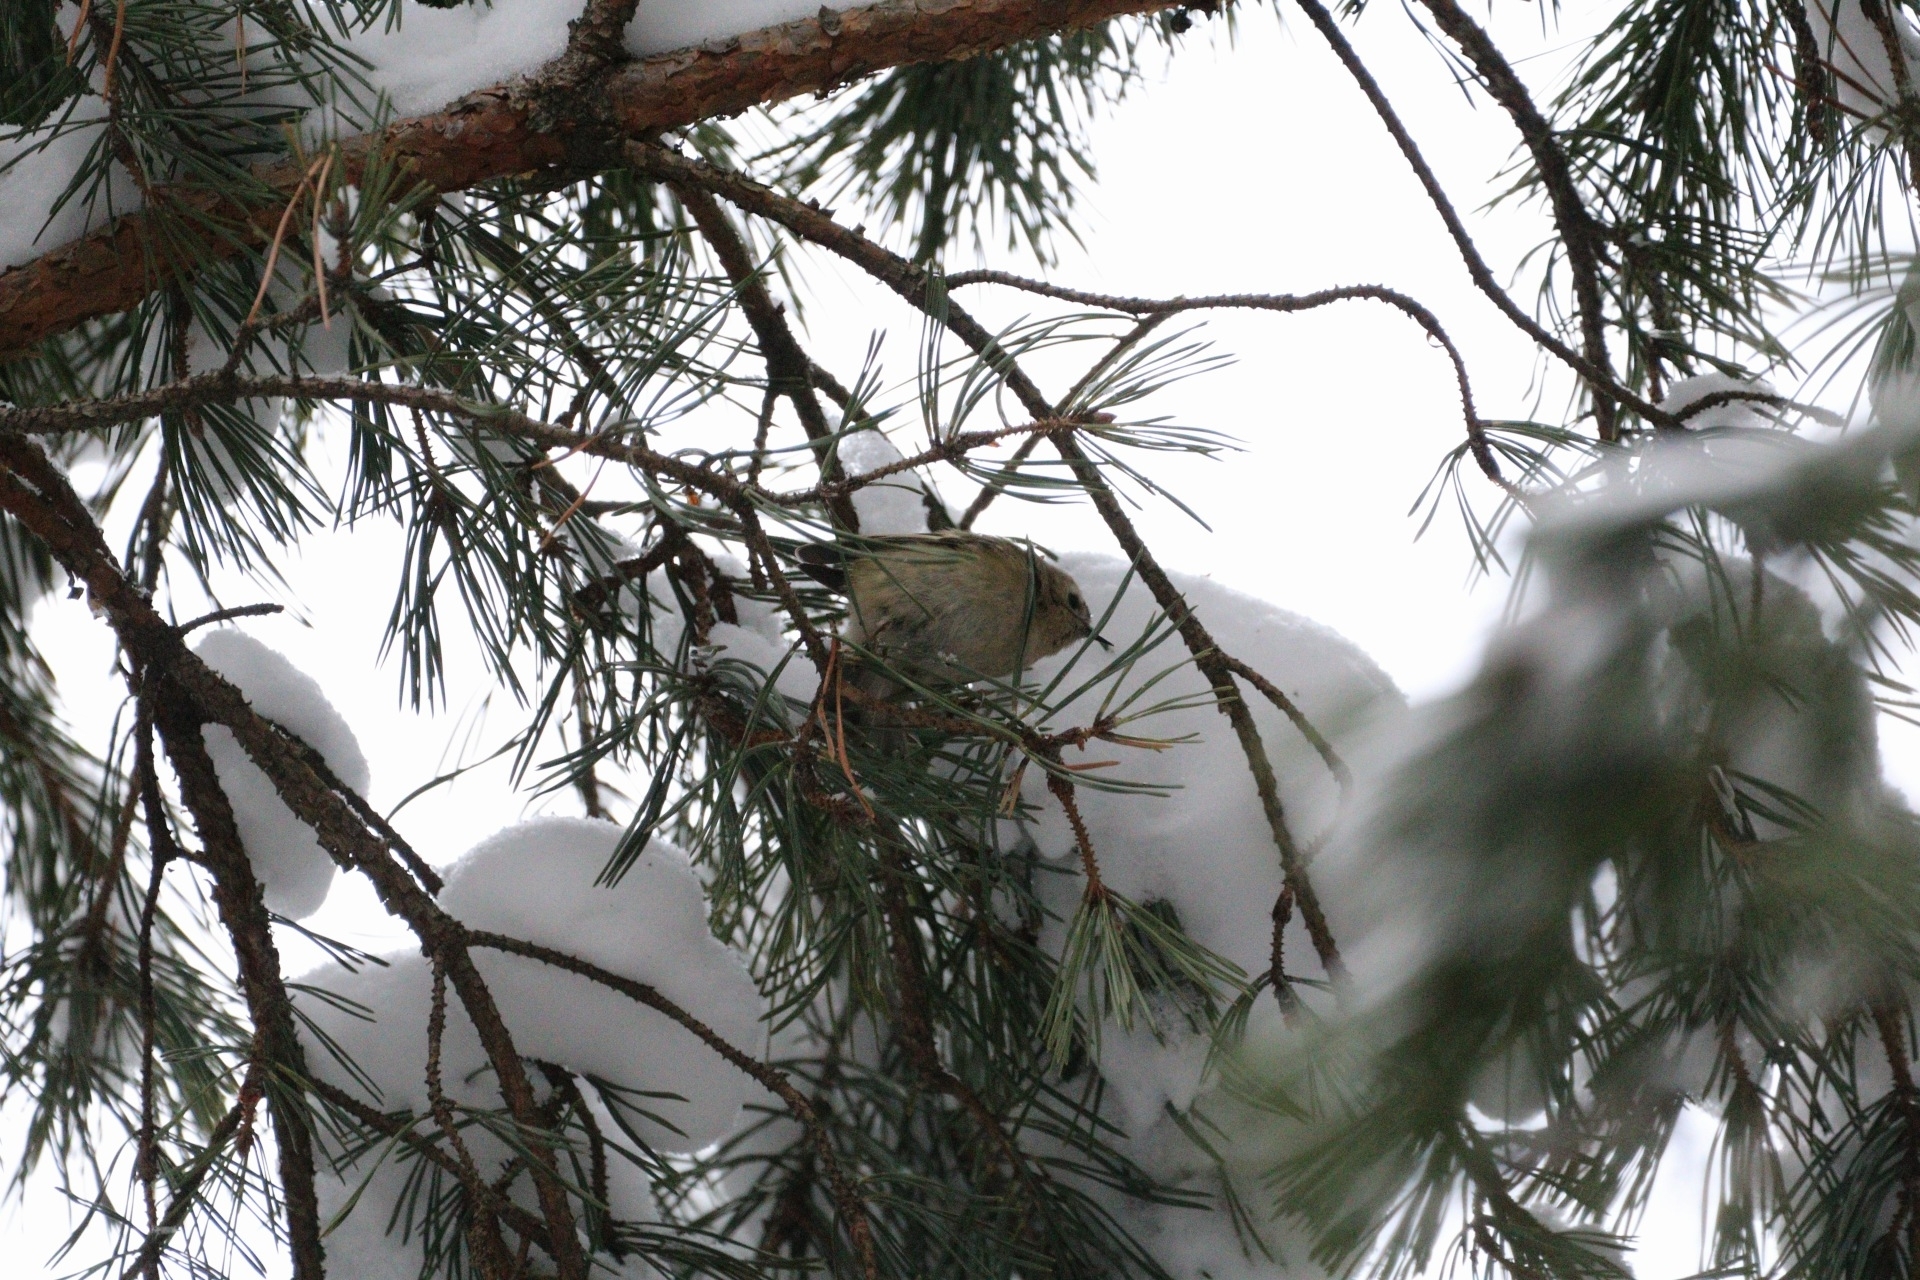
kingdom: Animalia
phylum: Chordata
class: Aves
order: Passeriformes
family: Regulidae
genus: Regulus
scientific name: Regulus regulus
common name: Goldcrest
